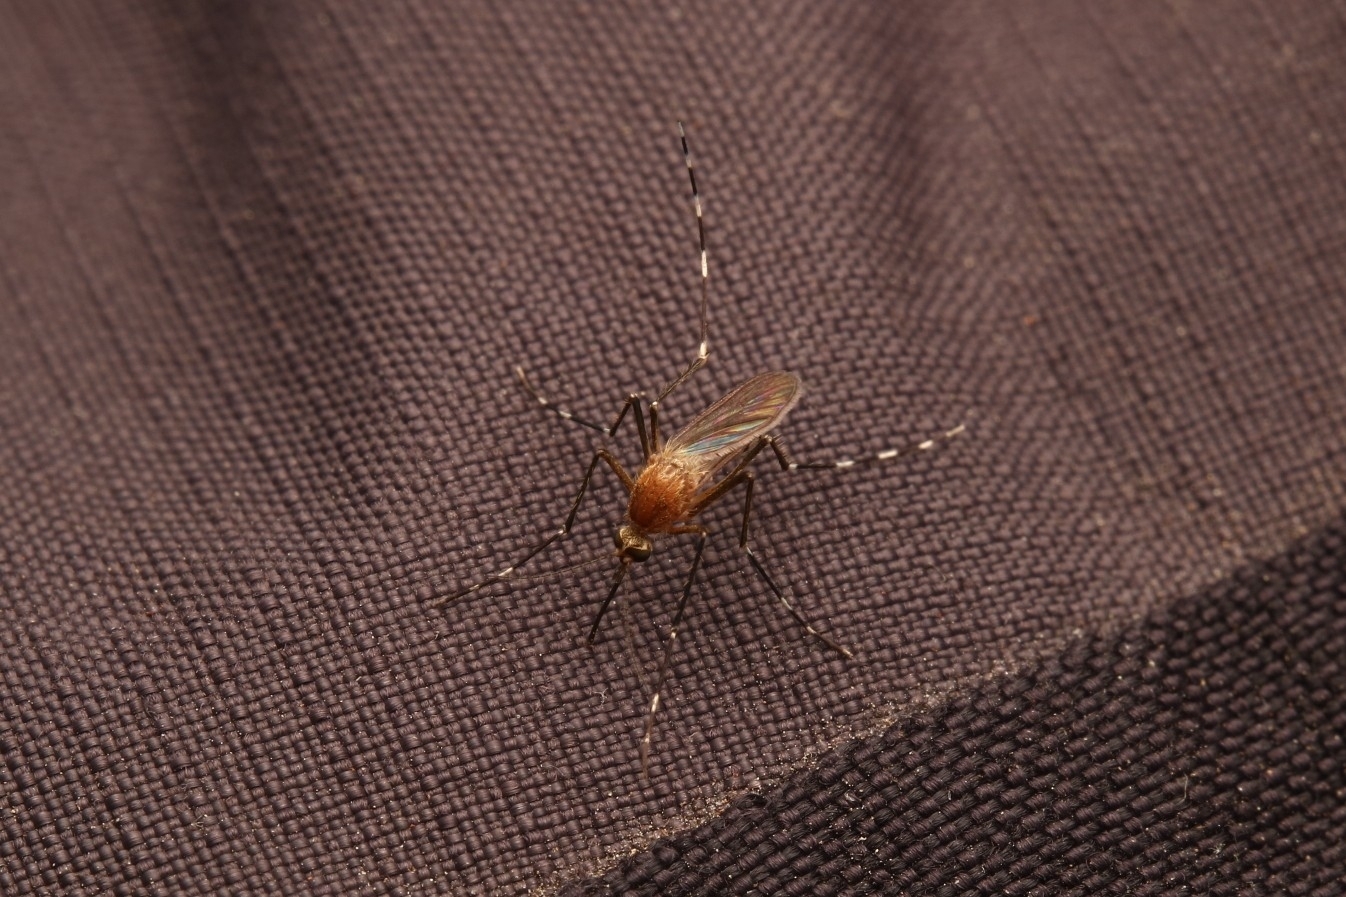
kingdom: Animalia
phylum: Arthropoda
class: Insecta
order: Diptera
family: Culicidae
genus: Aedes
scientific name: Aedes canadensis
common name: Woodland pool mosquito
